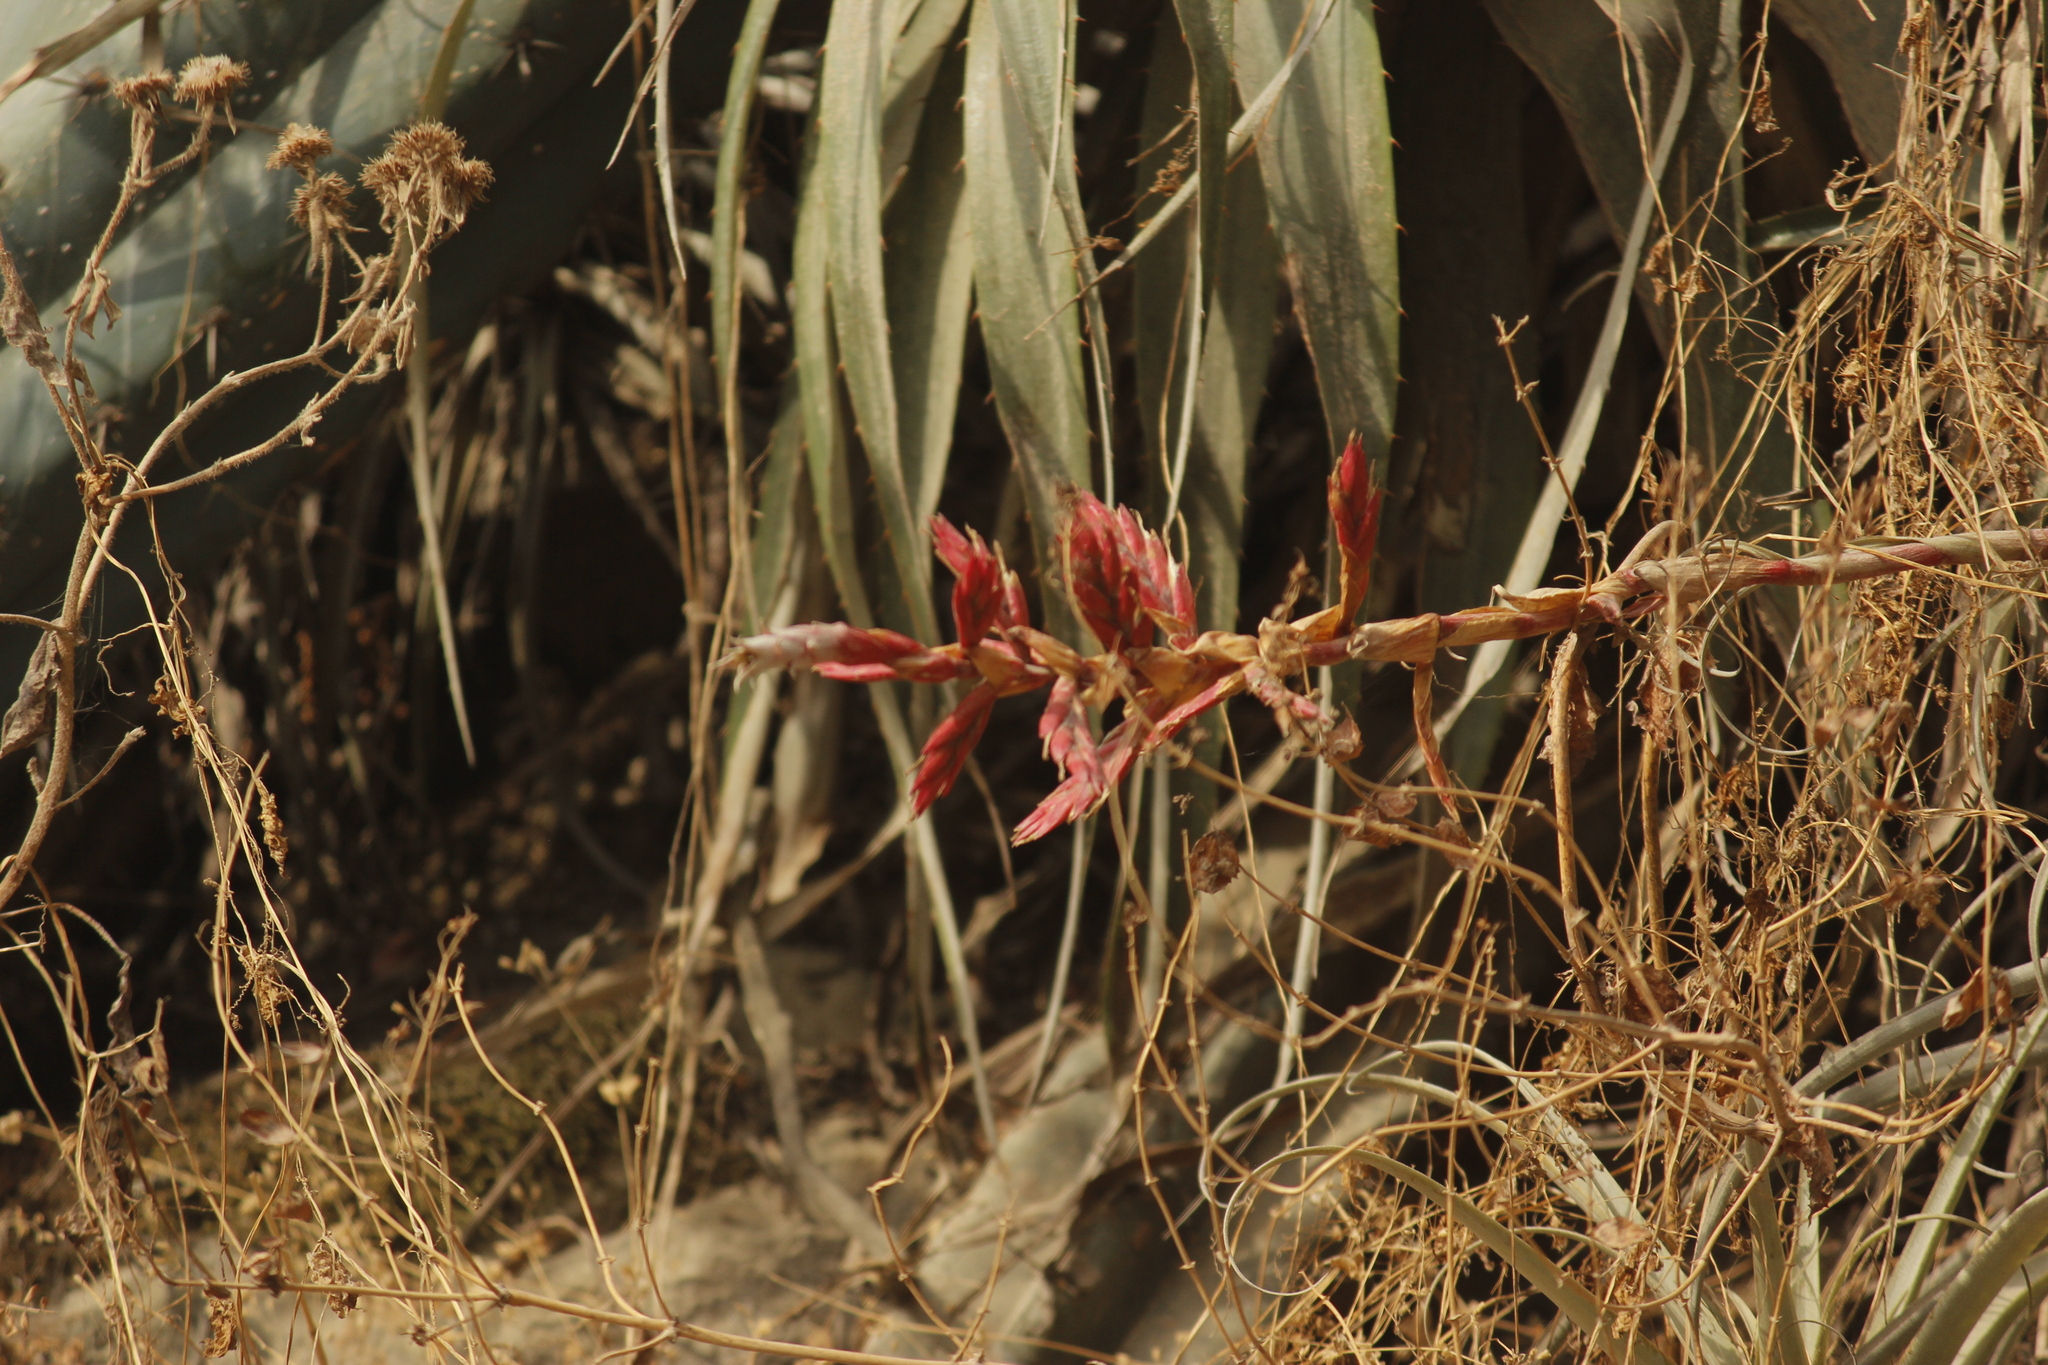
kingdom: Plantae
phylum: Tracheophyta
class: Liliopsida
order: Poales
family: Bromeliaceae
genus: Tillandsia
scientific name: Tillandsia latifolia
